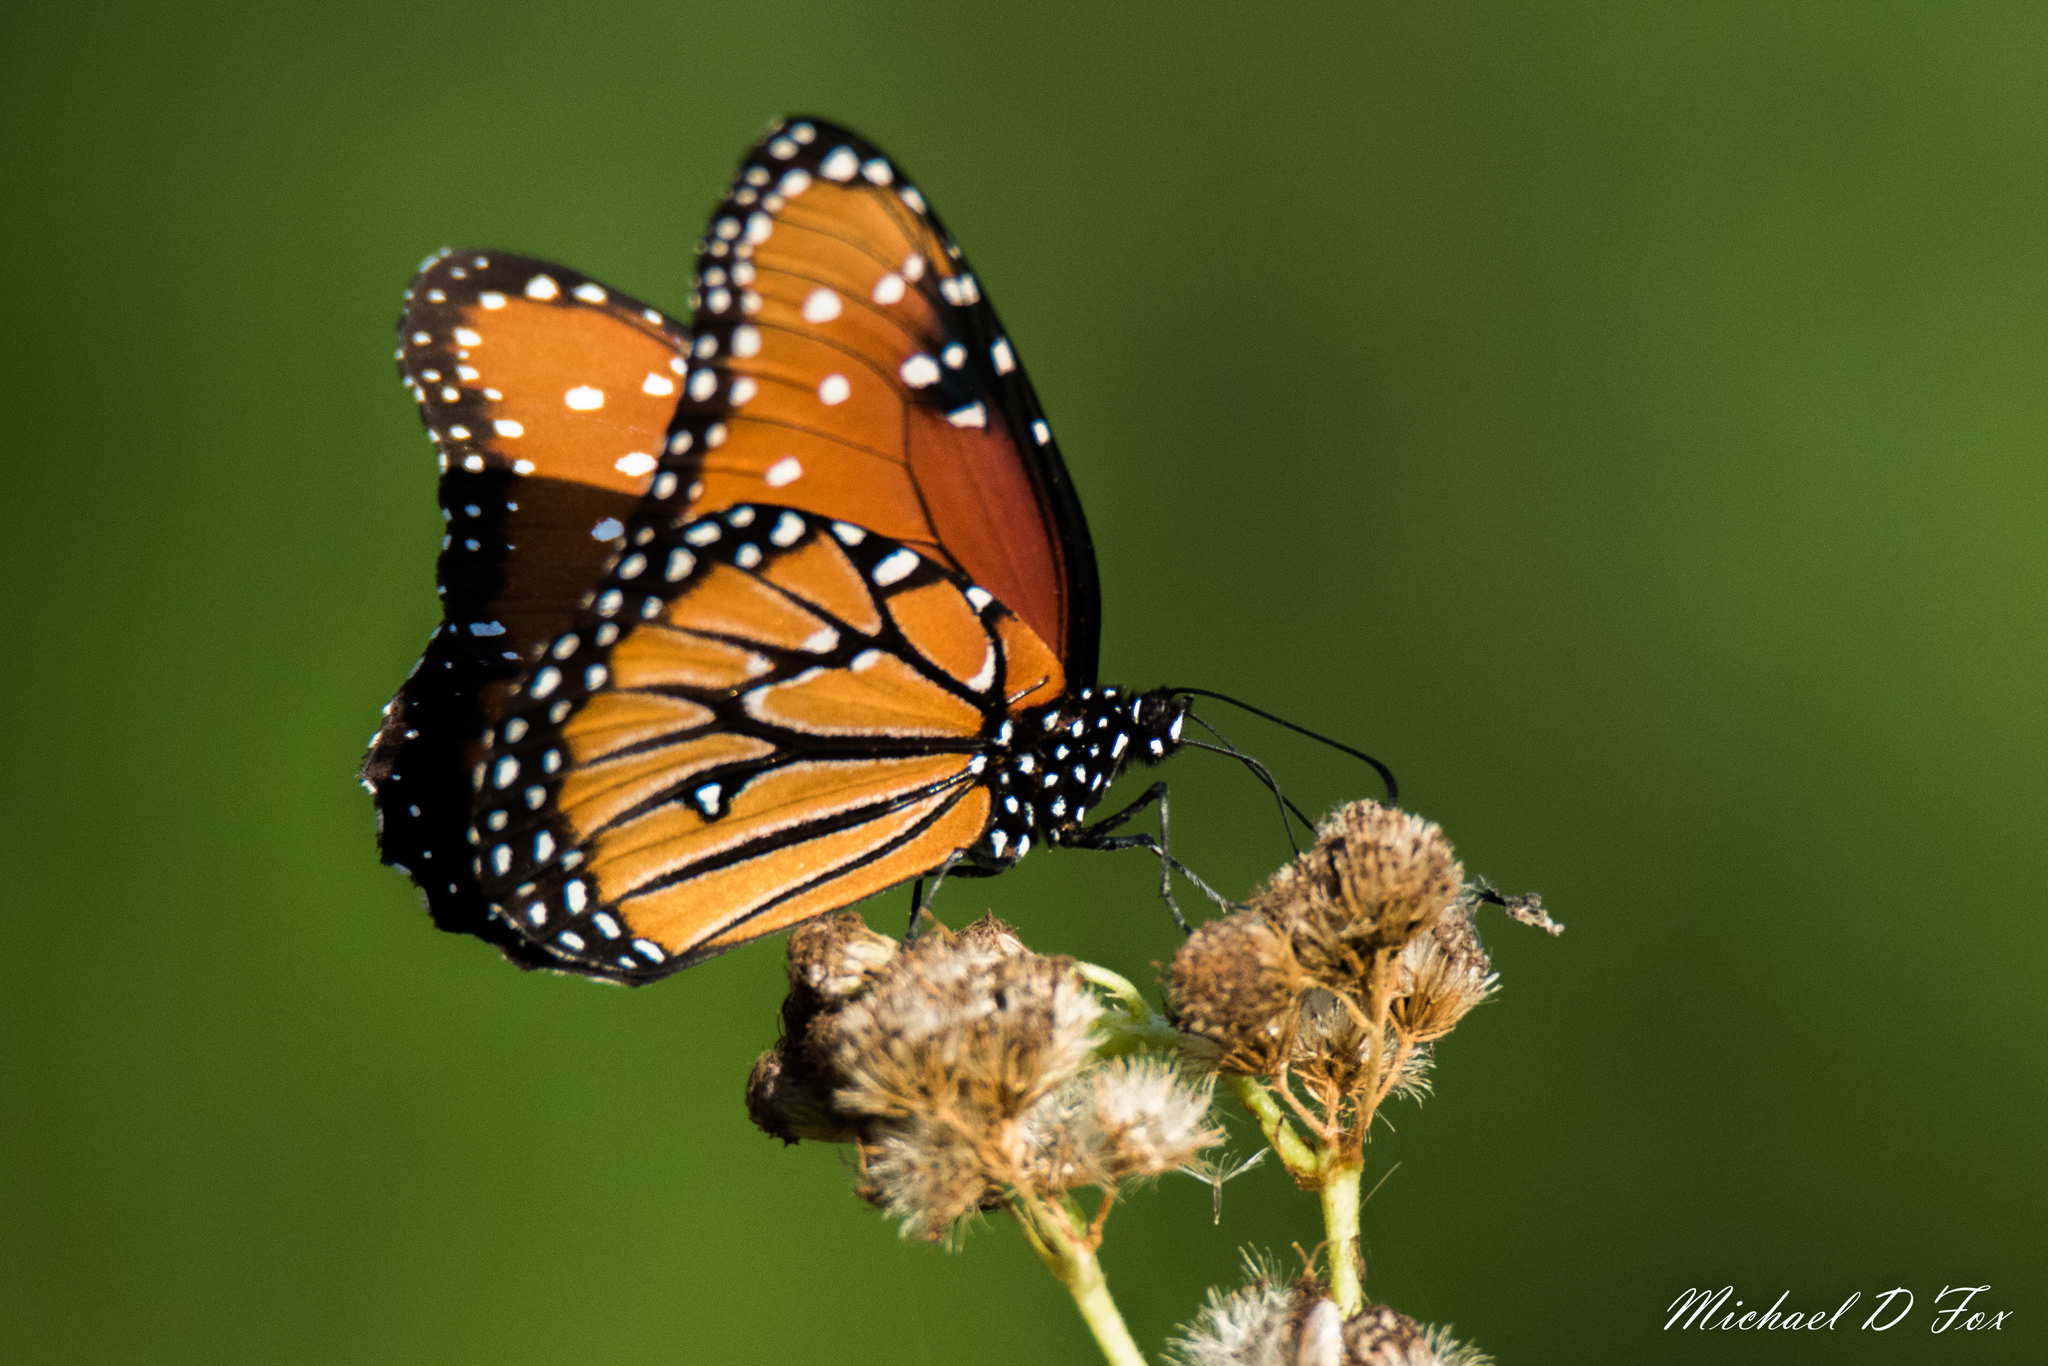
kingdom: Animalia
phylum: Arthropoda
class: Insecta
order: Lepidoptera
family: Nymphalidae
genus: Danaus
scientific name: Danaus gilippus
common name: Queen
